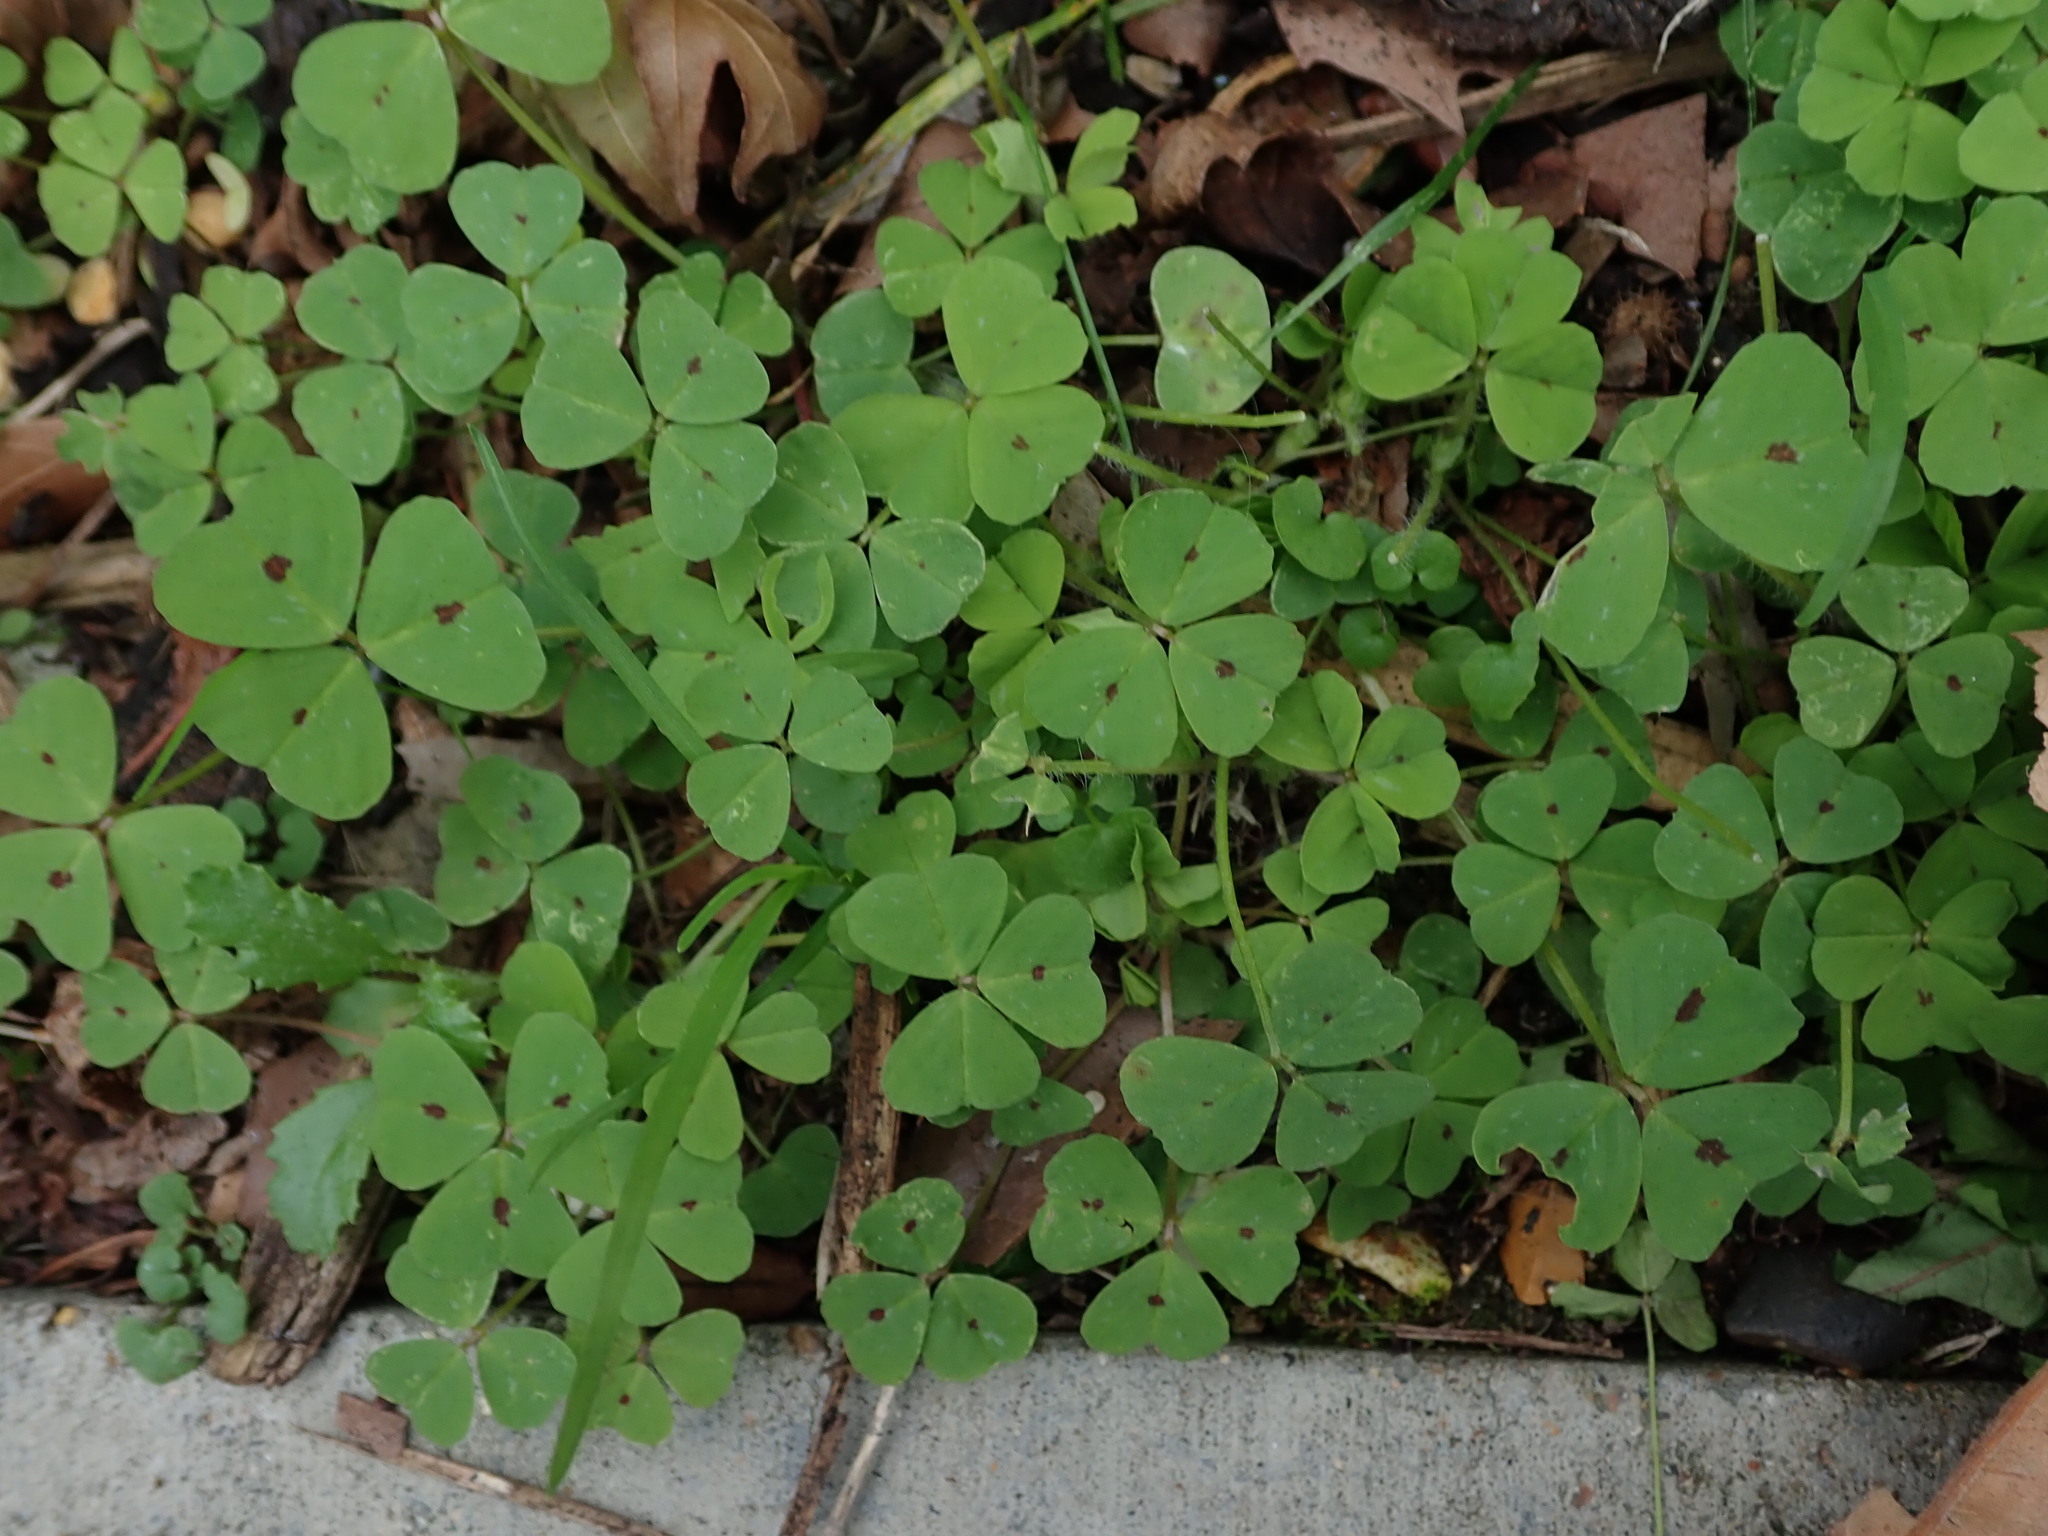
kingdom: Plantae
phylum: Tracheophyta
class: Magnoliopsida
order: Fabales
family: Fabaceae
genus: Medicago
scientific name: Medicago arabica
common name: Spotted medick
